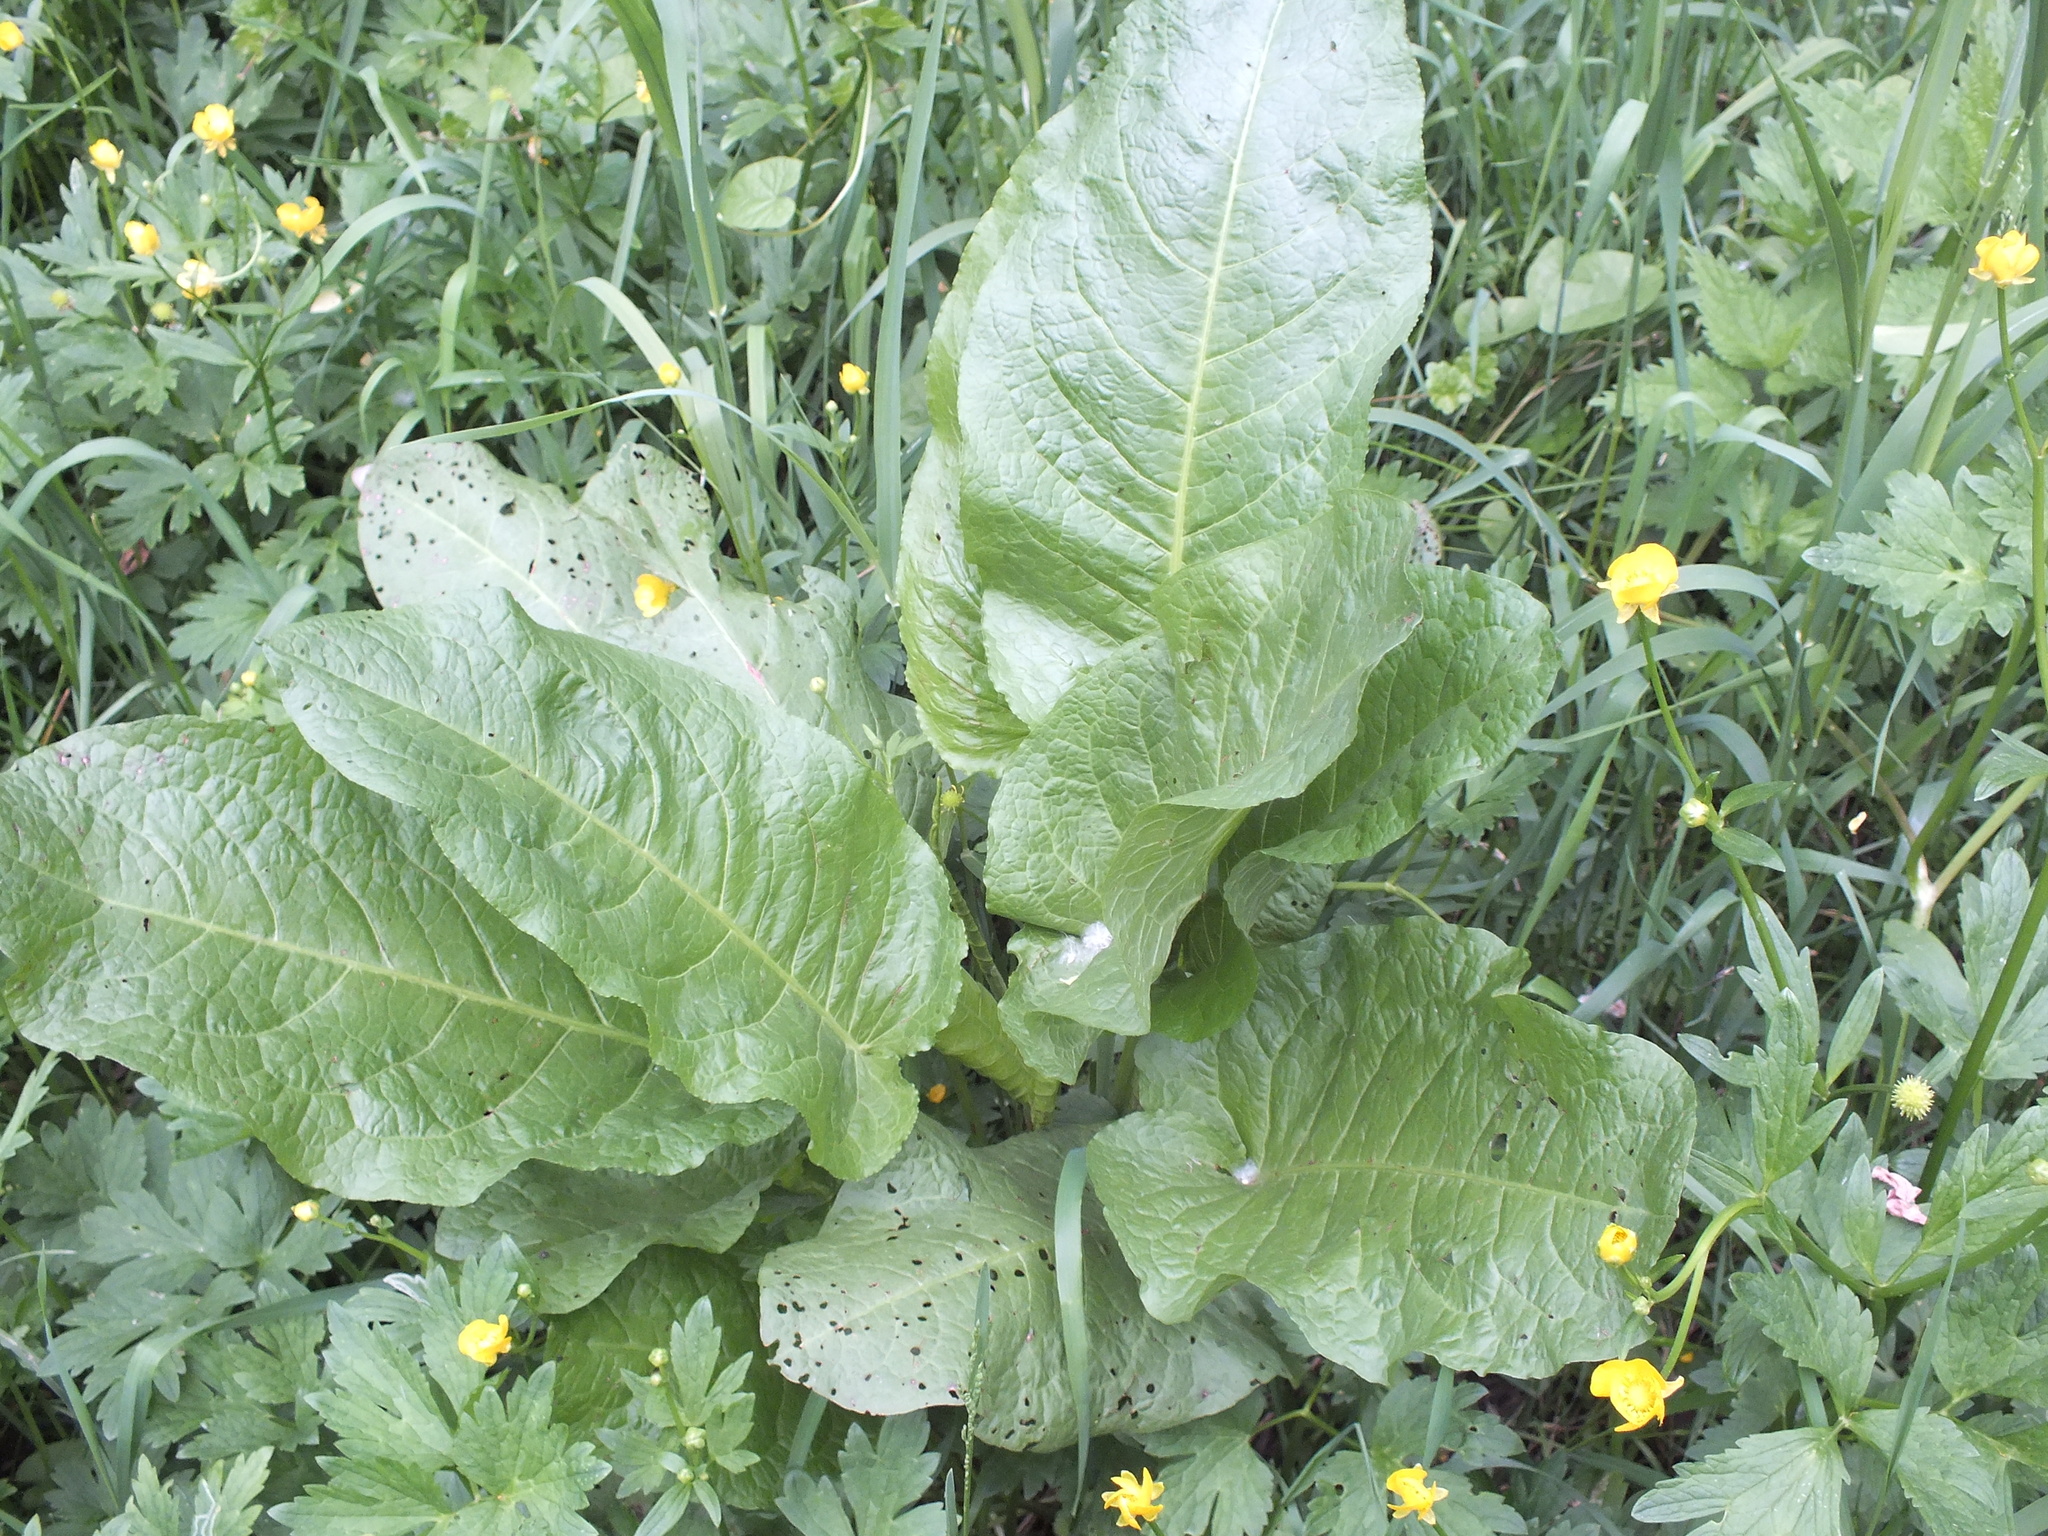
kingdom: Plantae
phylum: Tracheophyta
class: Magnoliopsida
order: Caryophyllales
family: Polygonaceae
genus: Rumex
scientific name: Rumex obtusifolius
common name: Bitter dock
